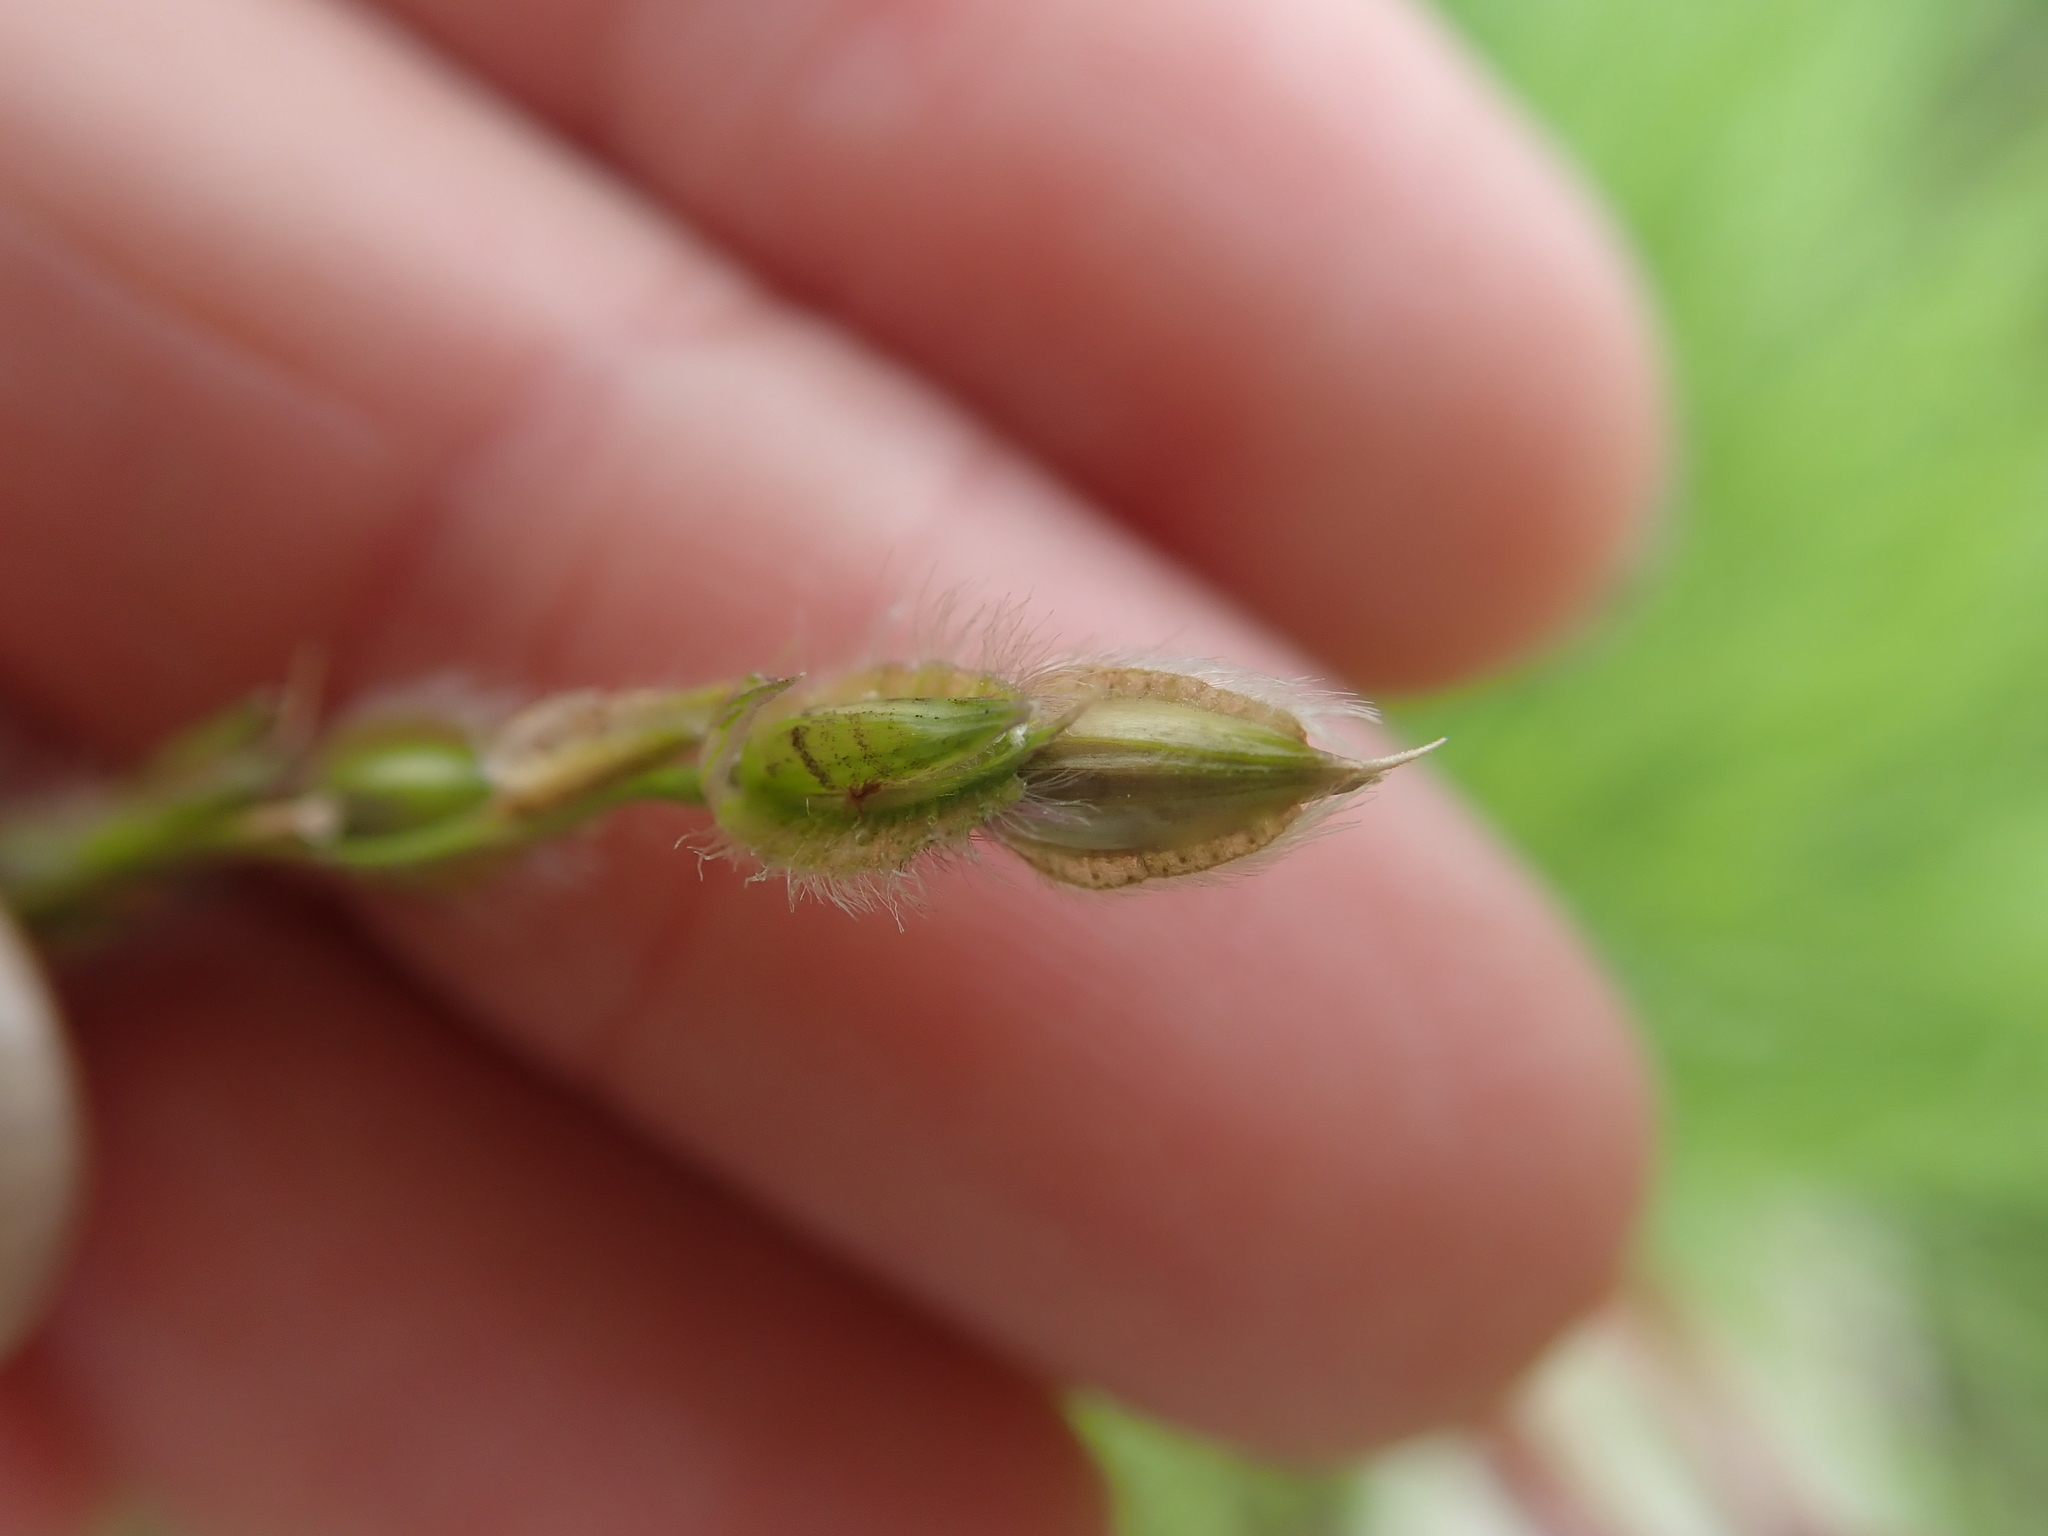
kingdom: Plantae
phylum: Tracheophyta
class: Liliopsida
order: Poales
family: Poaceae
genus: Alloteropsis
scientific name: Alloteropsis semialata
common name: Cockatoo grass
